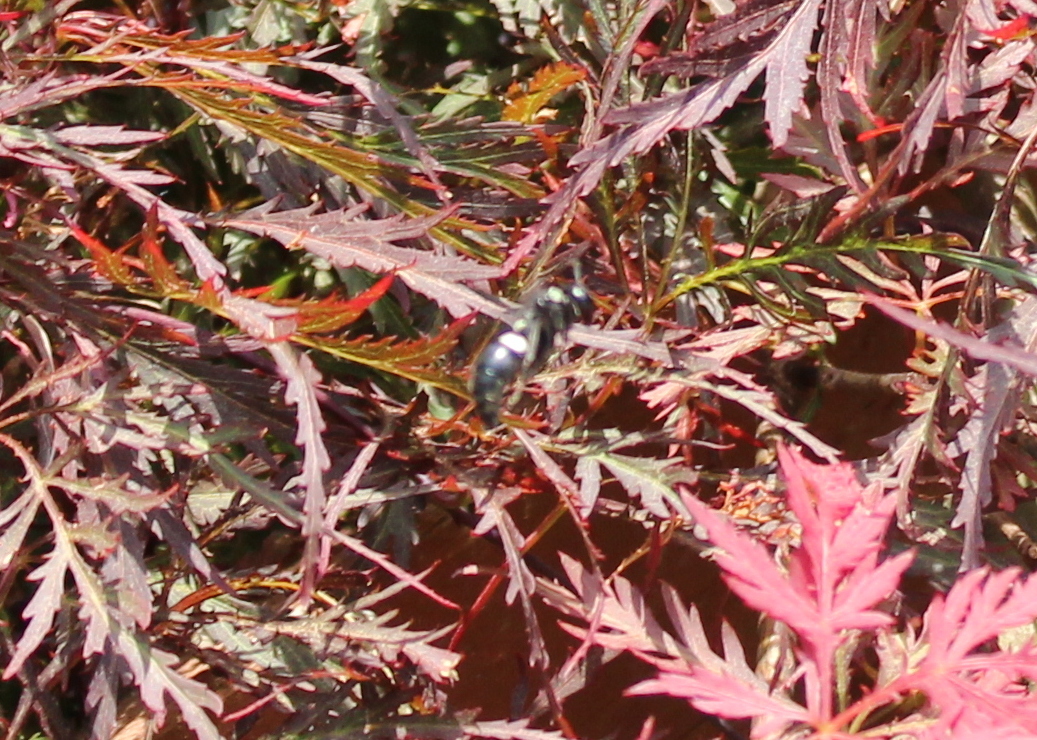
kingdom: Animalia
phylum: Arthropoda
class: Insecta
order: Hymenoptera
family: Eumenidae
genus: Monobia
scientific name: Monobia quadridens
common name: Four-toothed mason wasp
